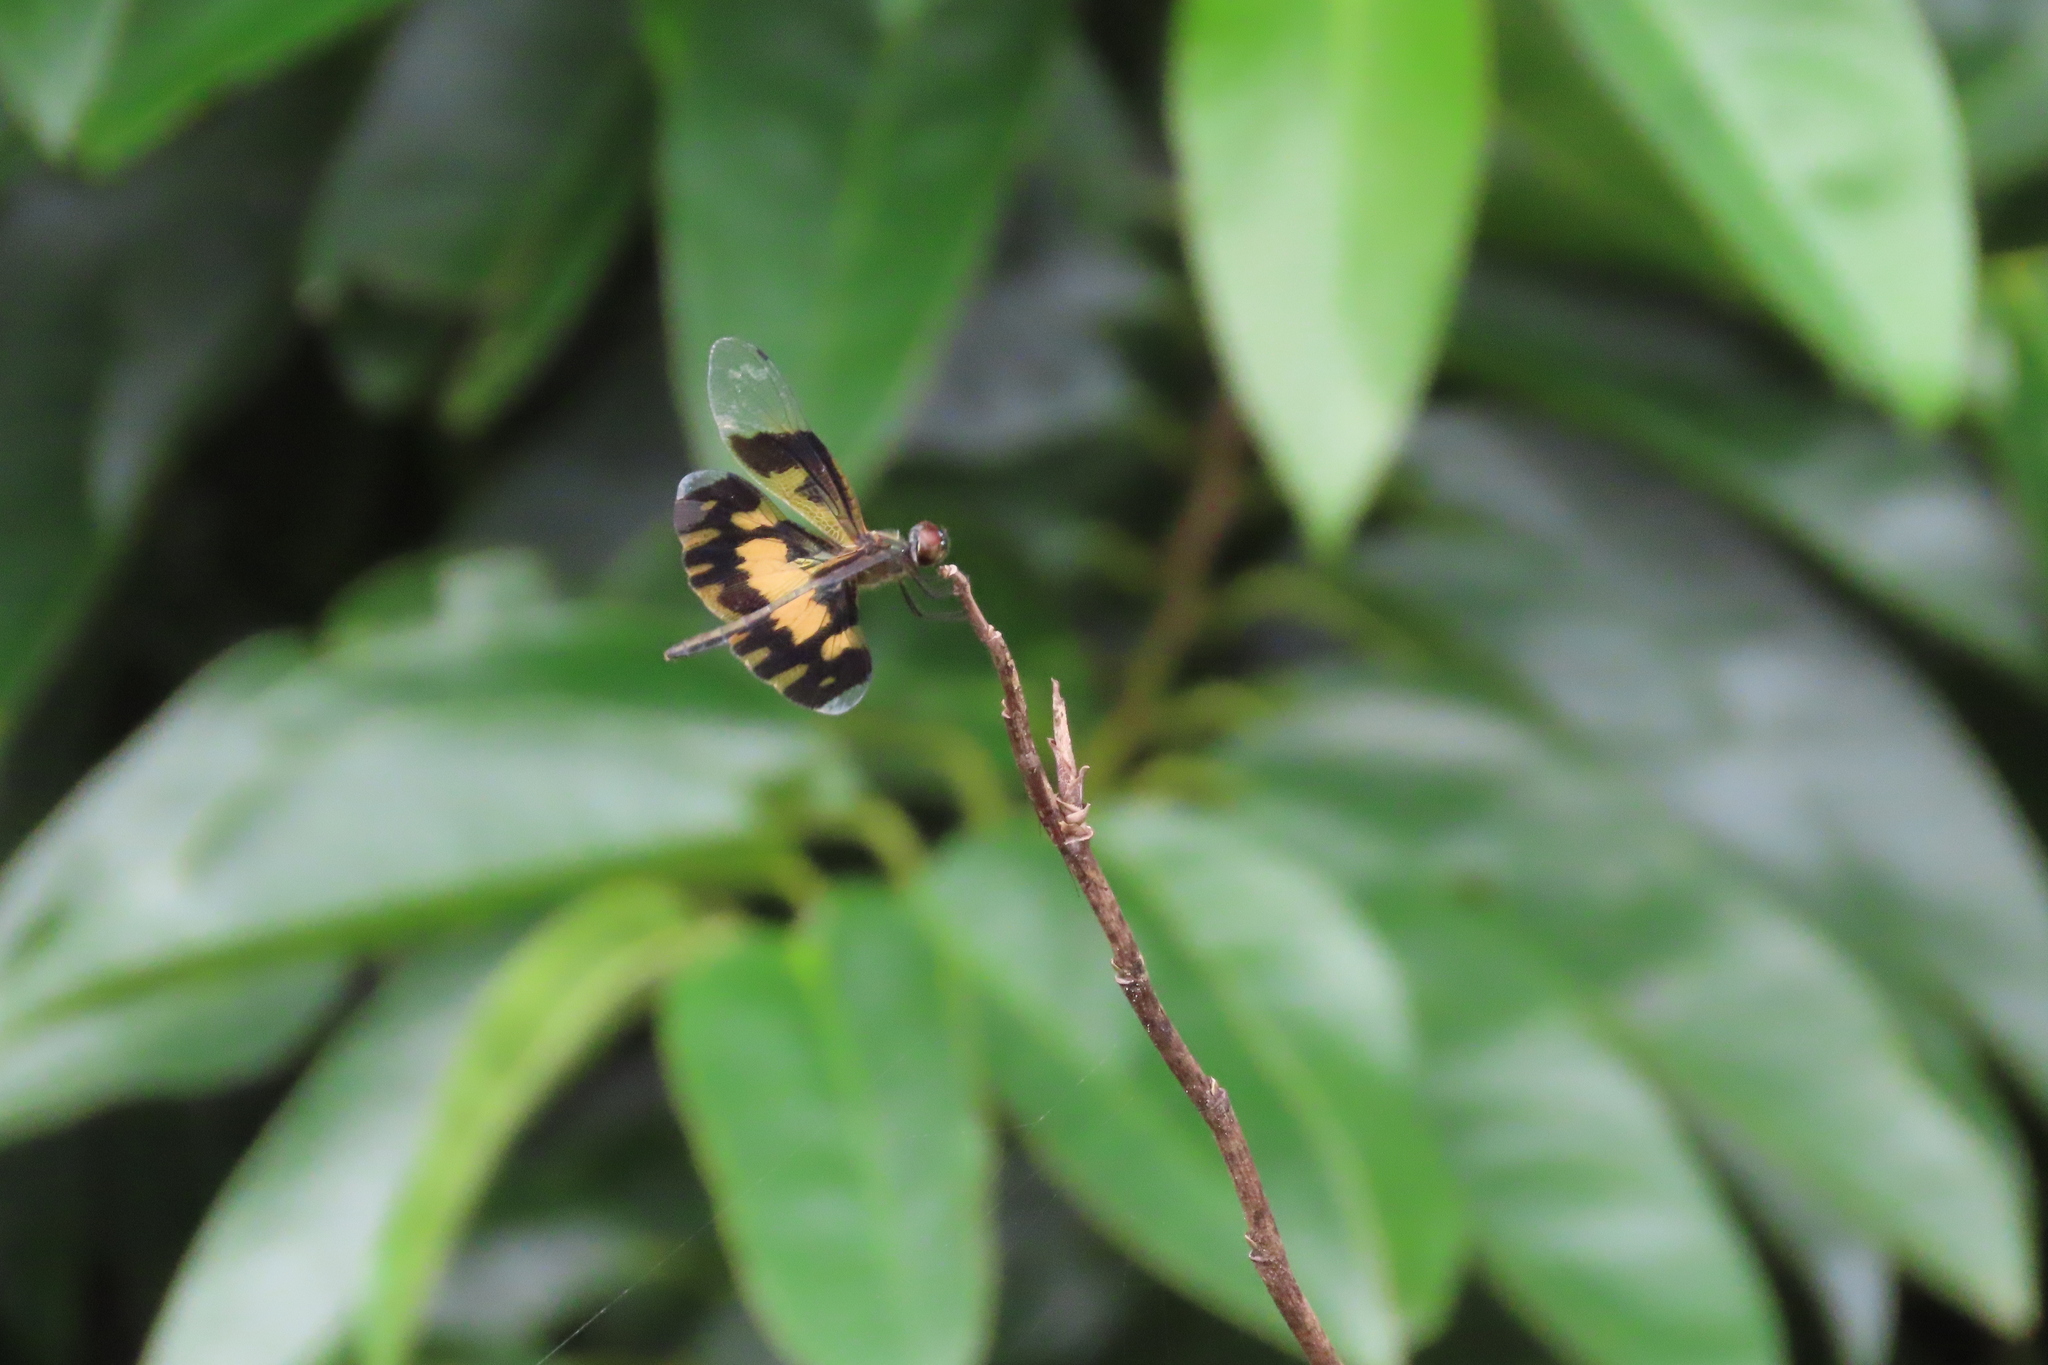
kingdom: Animalia
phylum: Arthropoda
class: Insecta
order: Odonata
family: Libellulidae
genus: Rhyothemis
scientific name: Rhyothemis variegata
